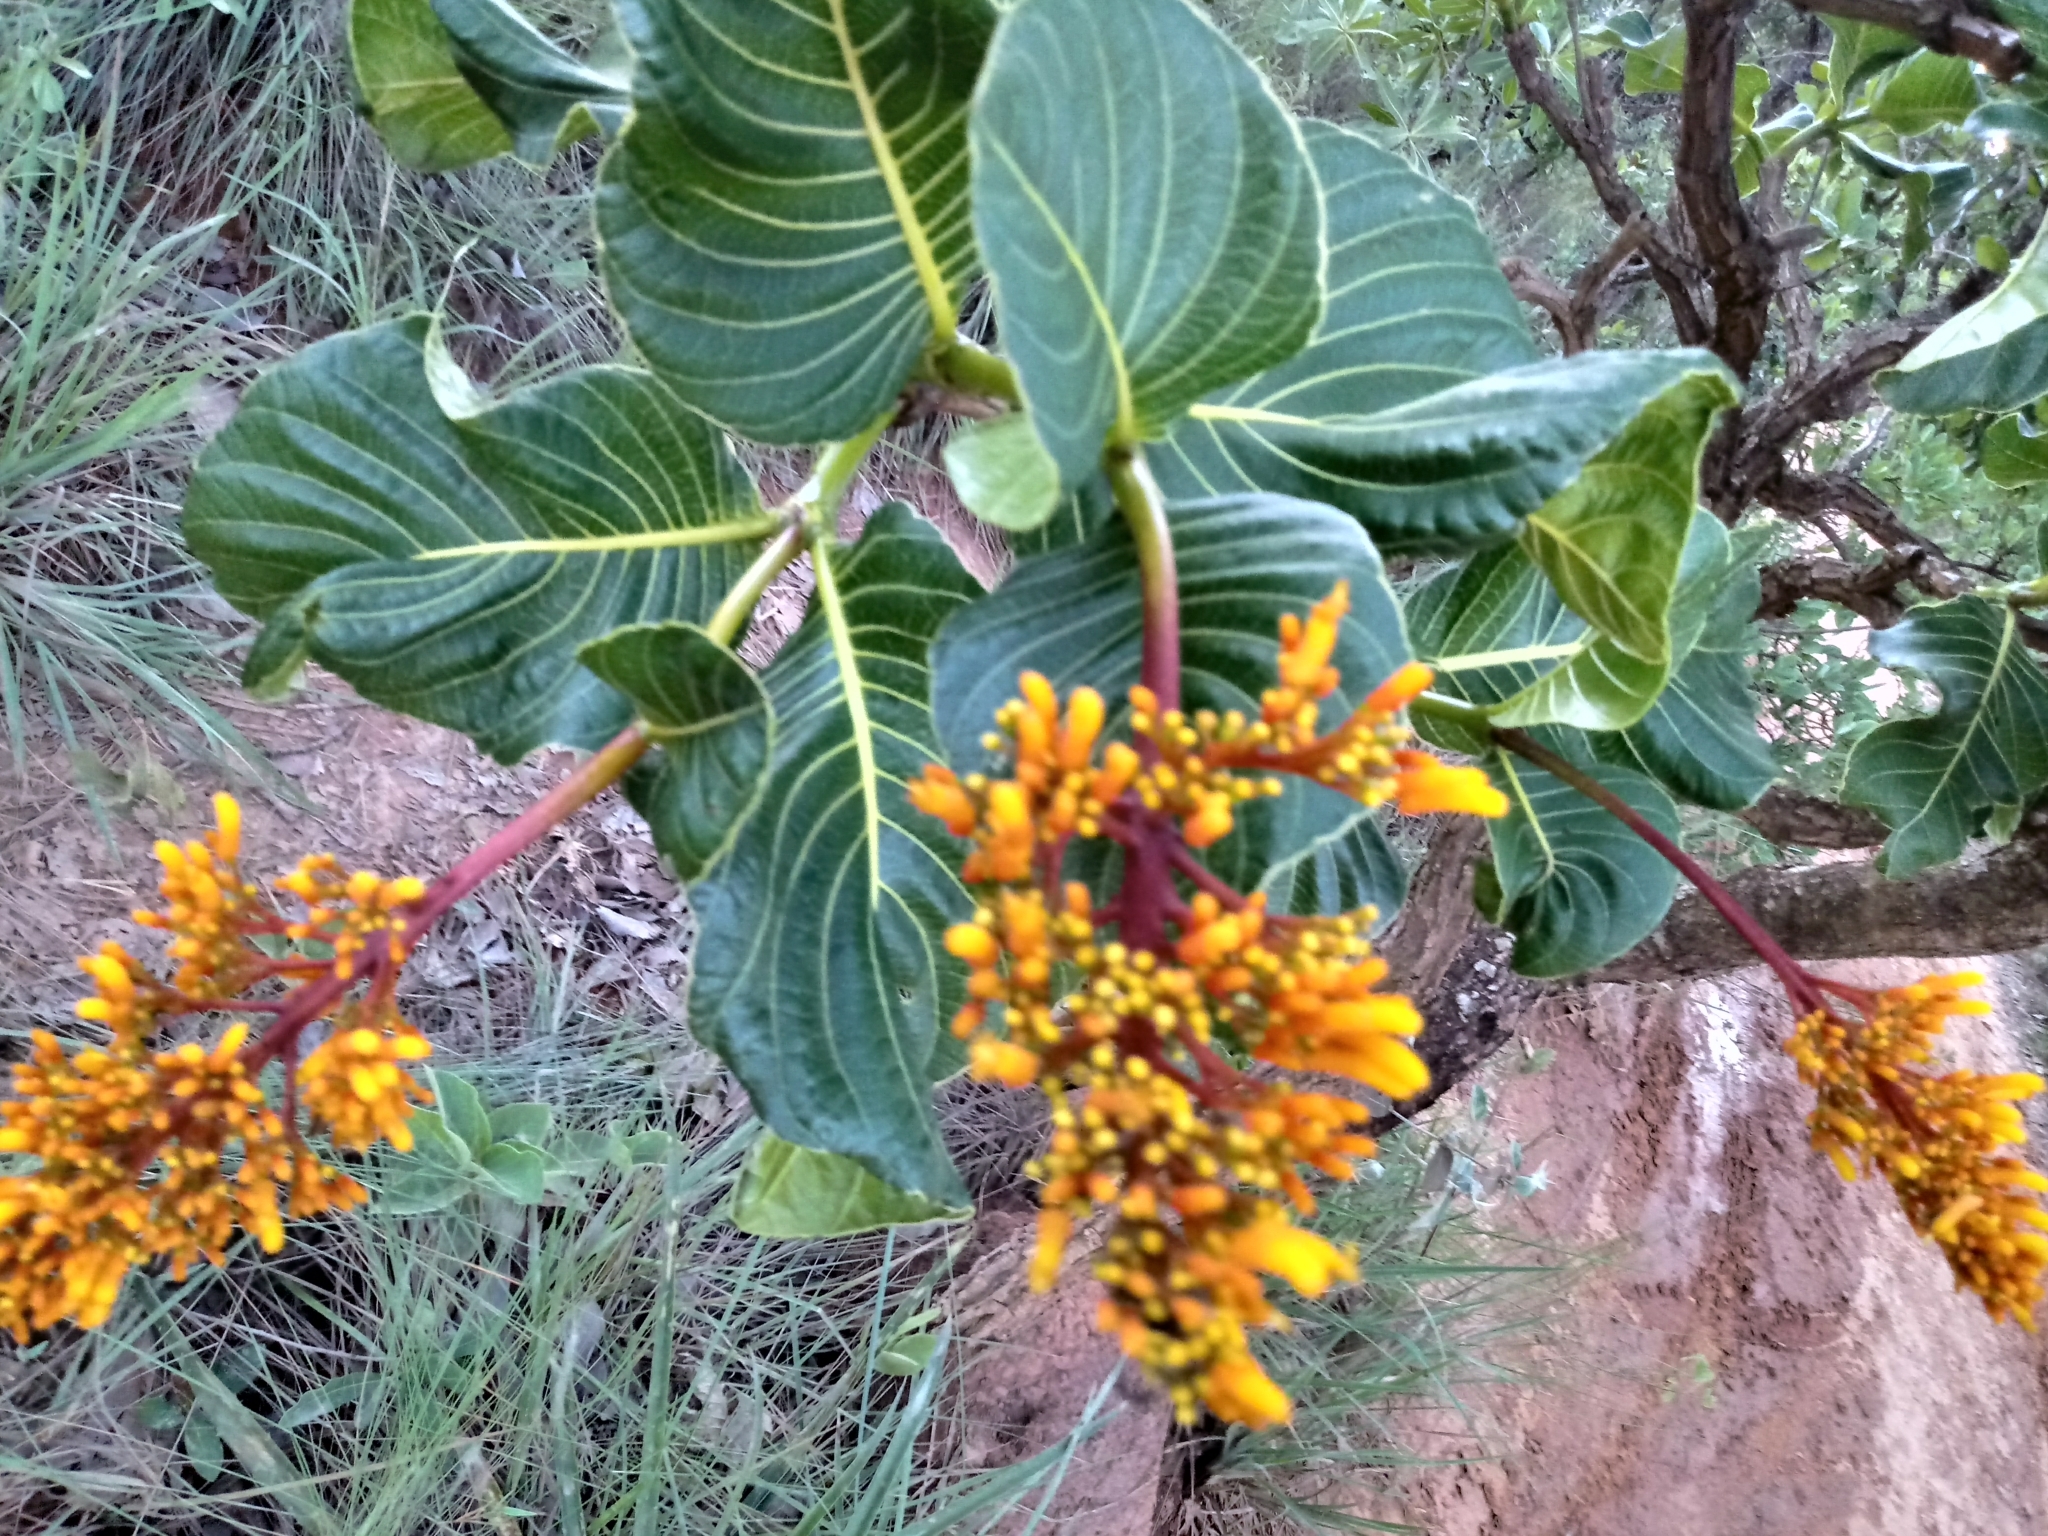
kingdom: Plantae
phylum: Tracheophyta
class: Magnoliopsida
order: Gentianales
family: Rubiaceae
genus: Palicourea
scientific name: Palicourea rigida
